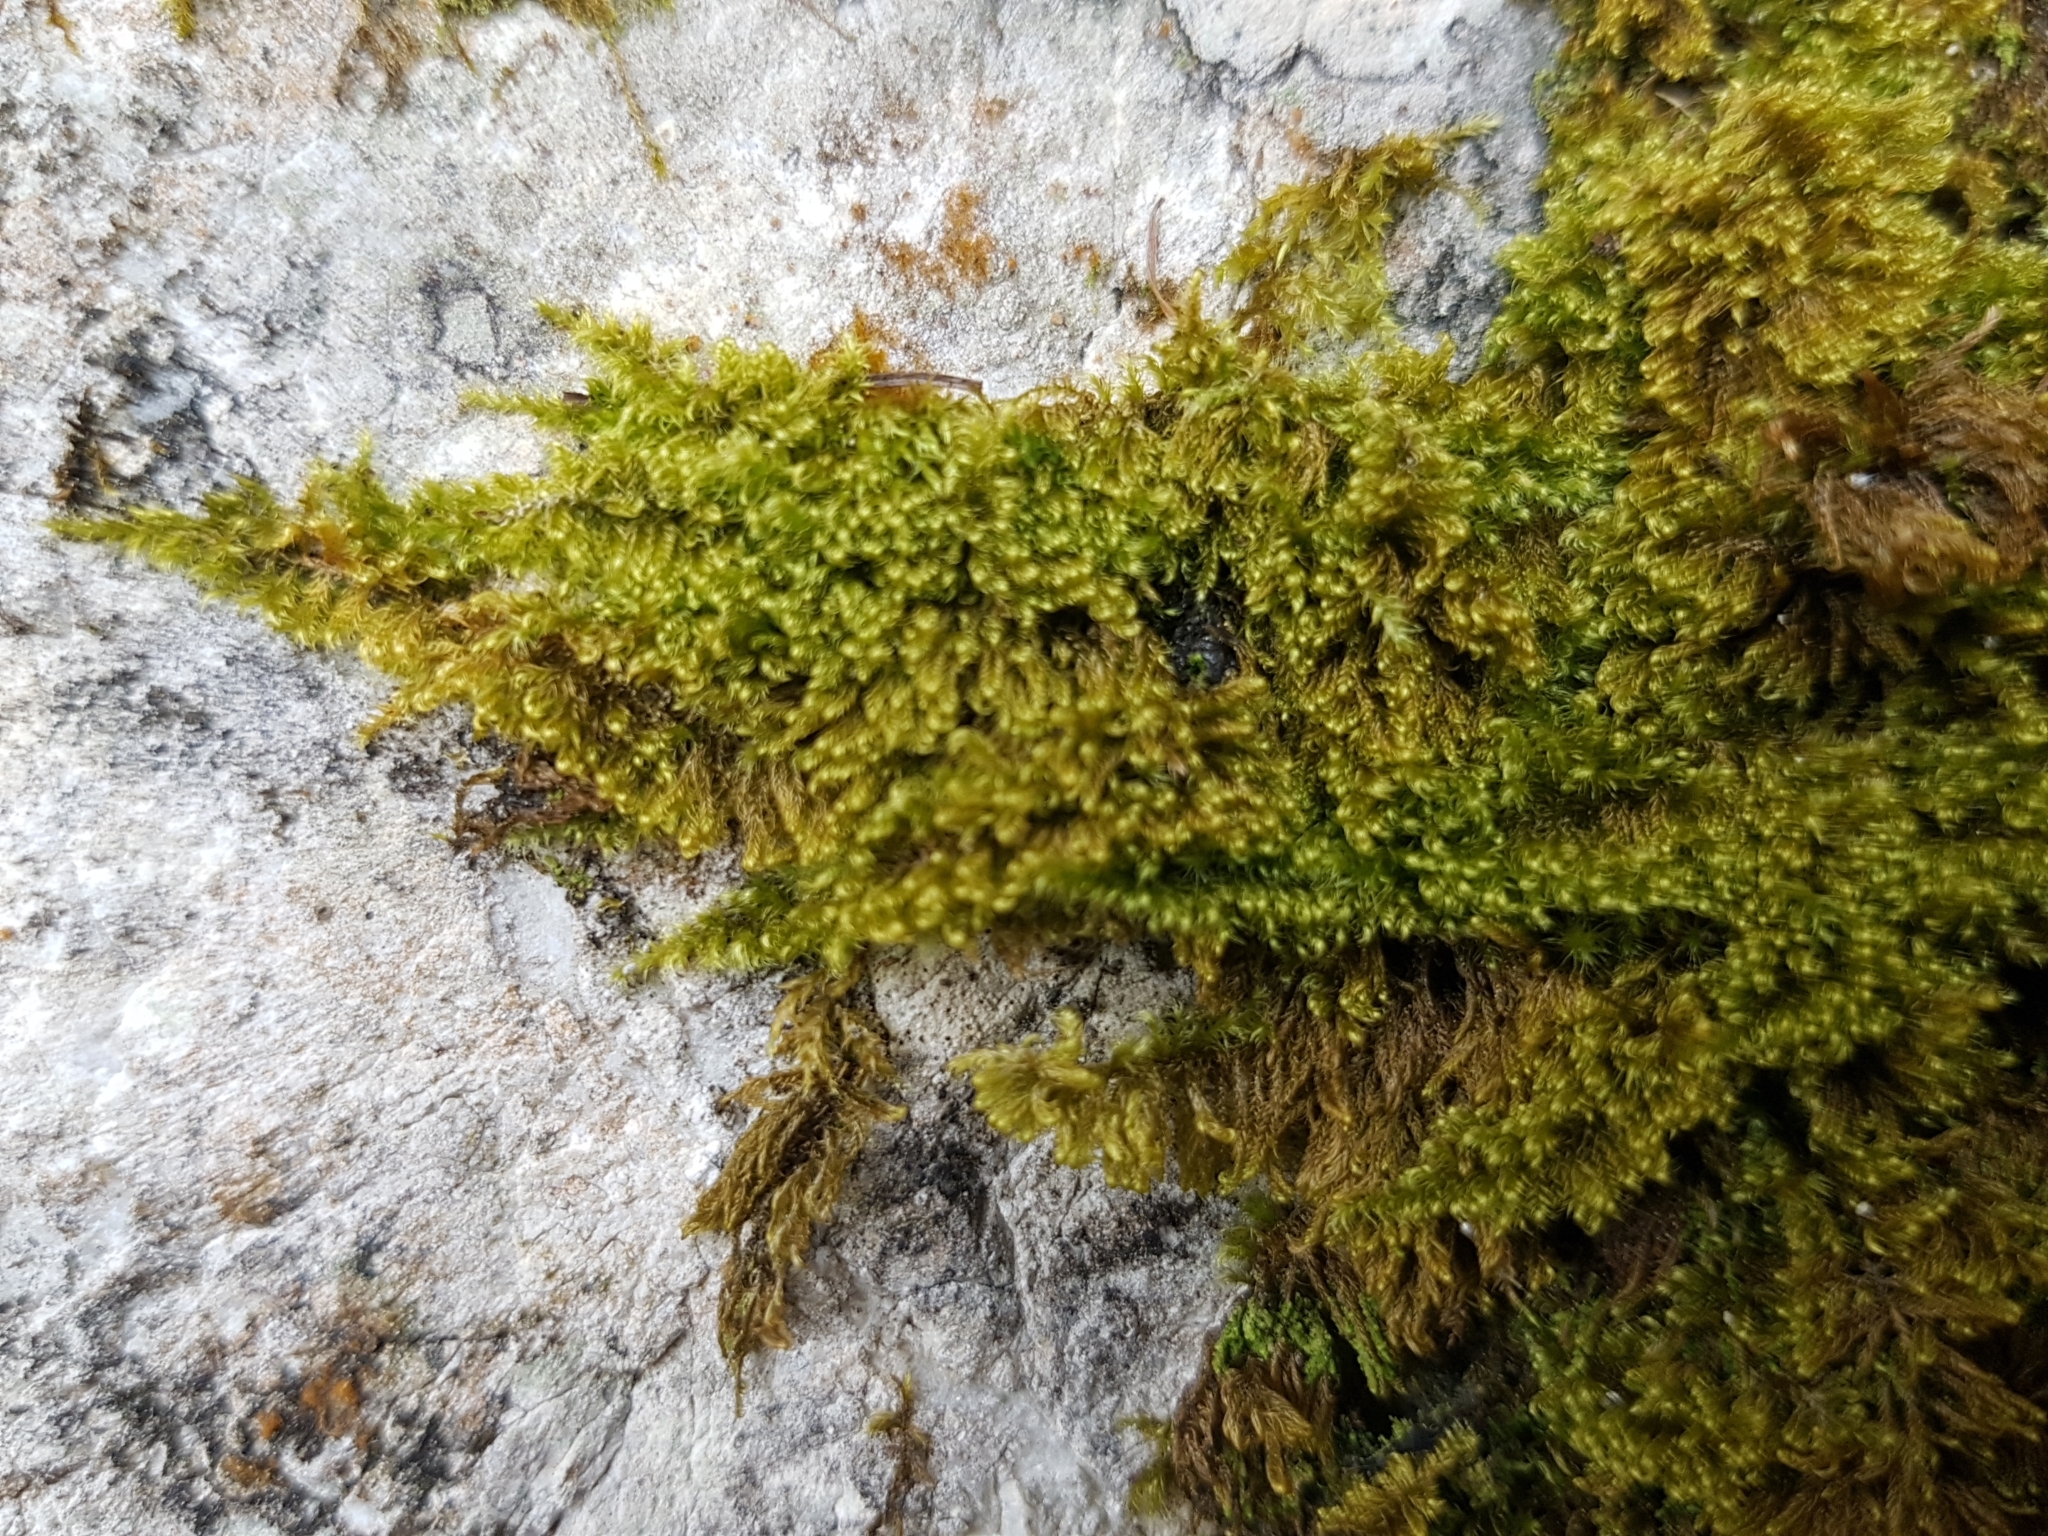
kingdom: Plantae
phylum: Bryophyta
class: Bryopsida
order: Hypnales
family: Myuriaceae
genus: Ctenidium
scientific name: Ctenidium molluscum
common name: Chalk comb-moss
